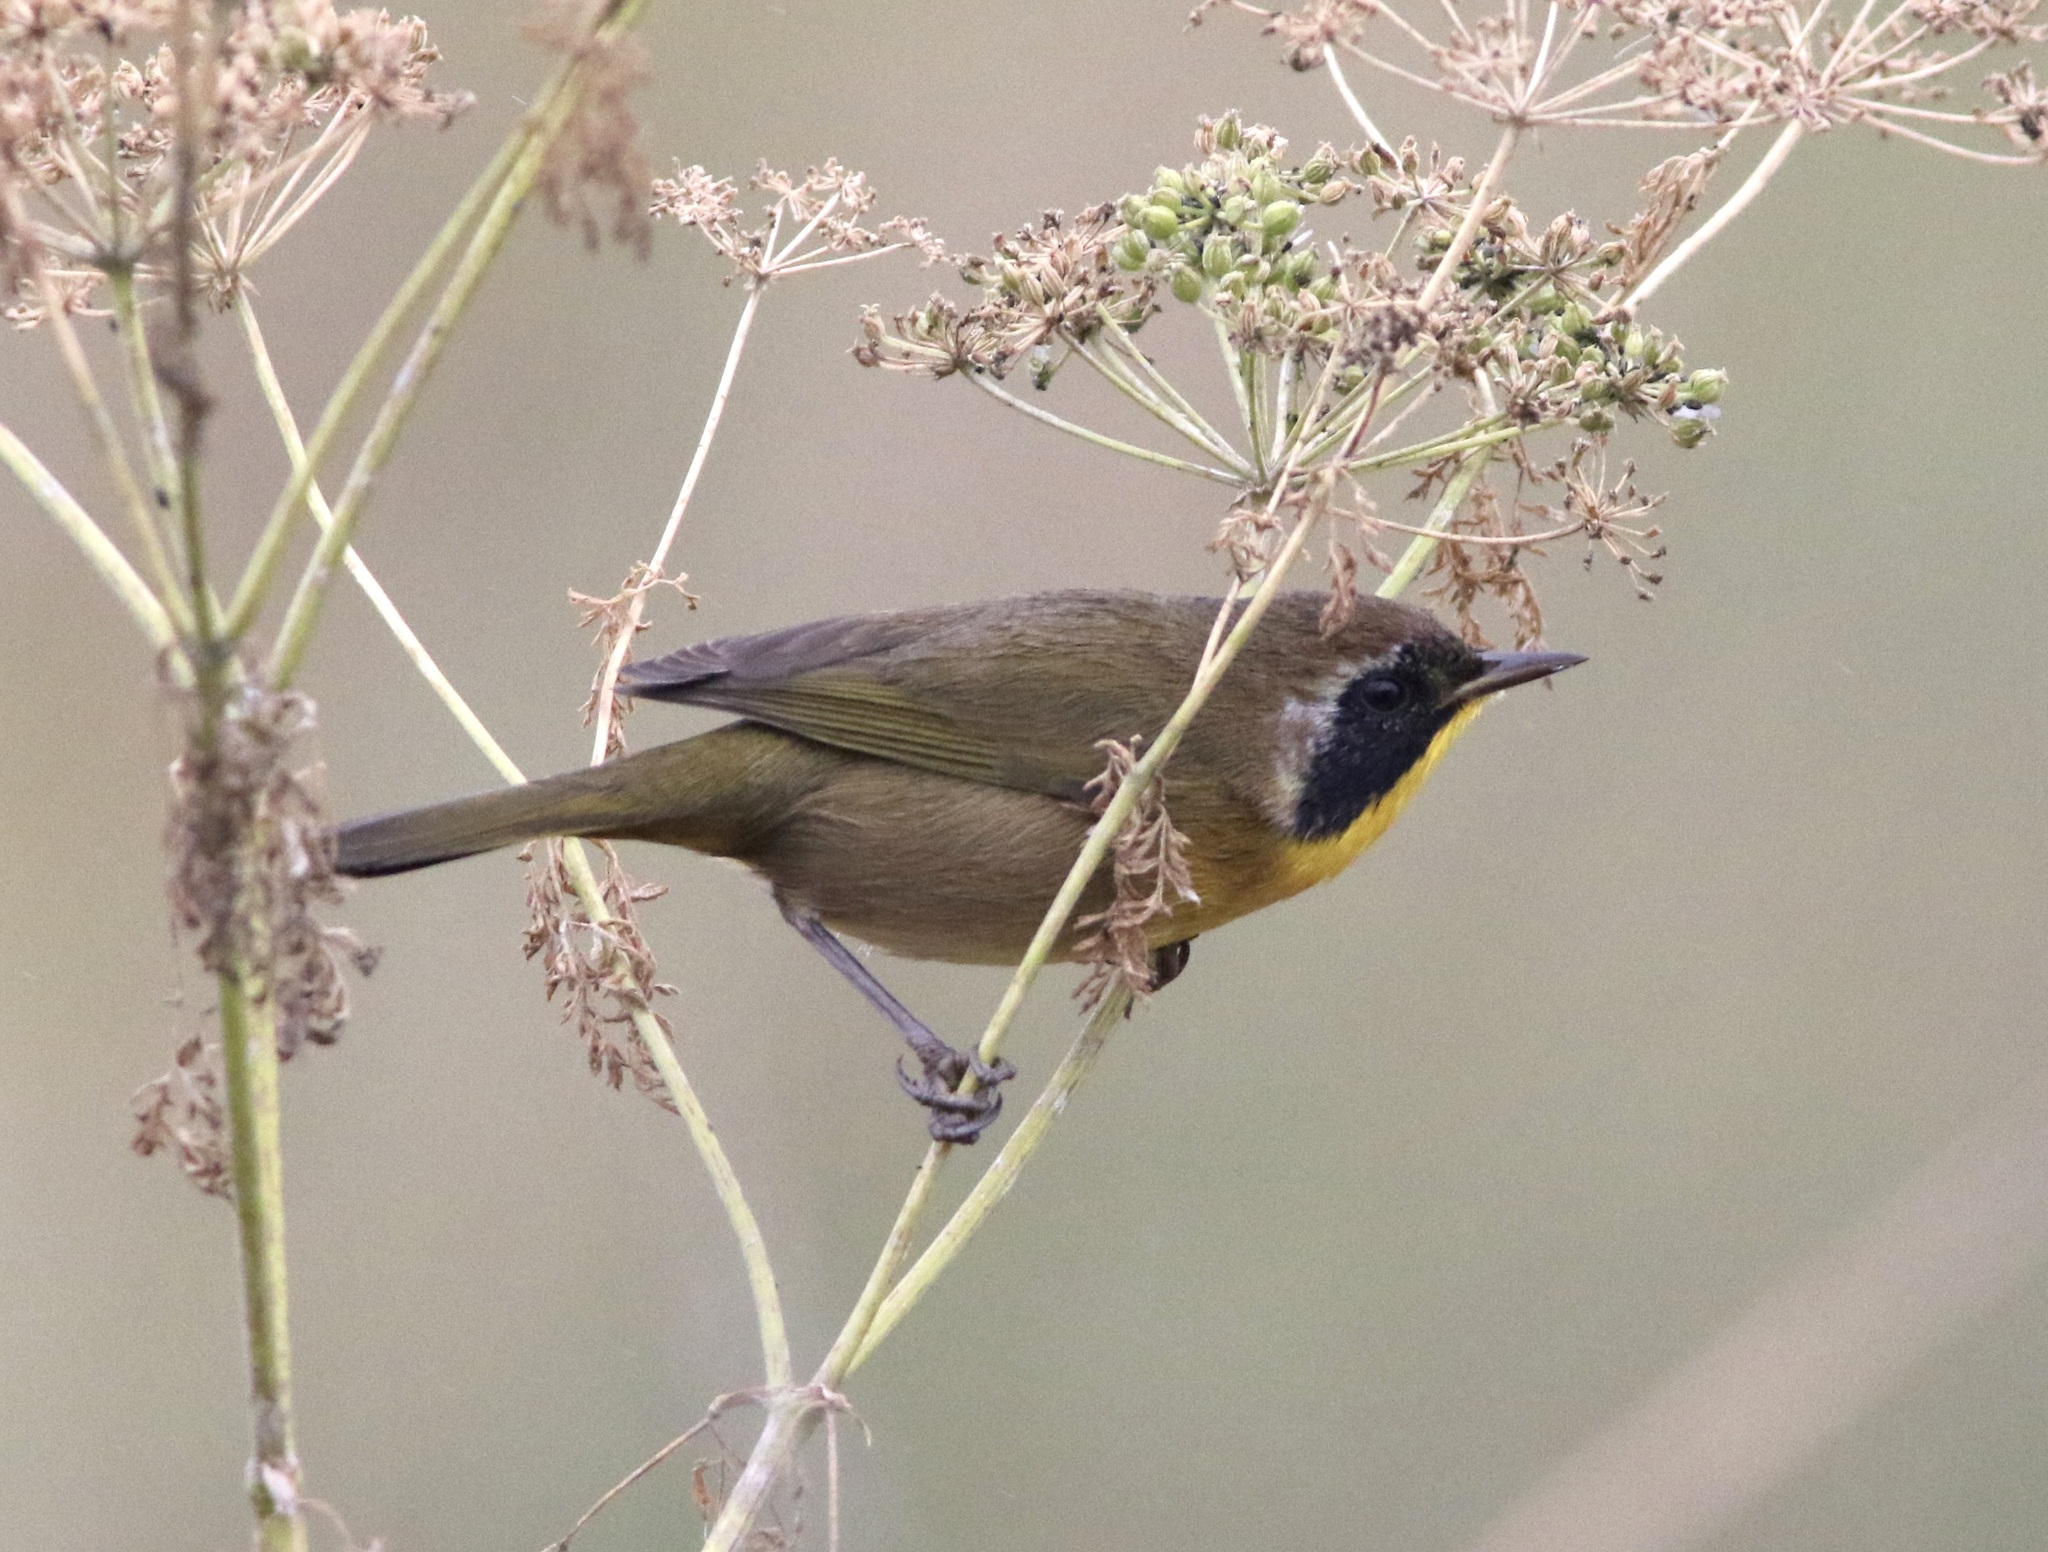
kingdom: Animalia
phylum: Chordata
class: Aves
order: Passeriformes
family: Parulidae
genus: Geothlypis
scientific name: Geothlypis trichas
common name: Common yellowthroat
